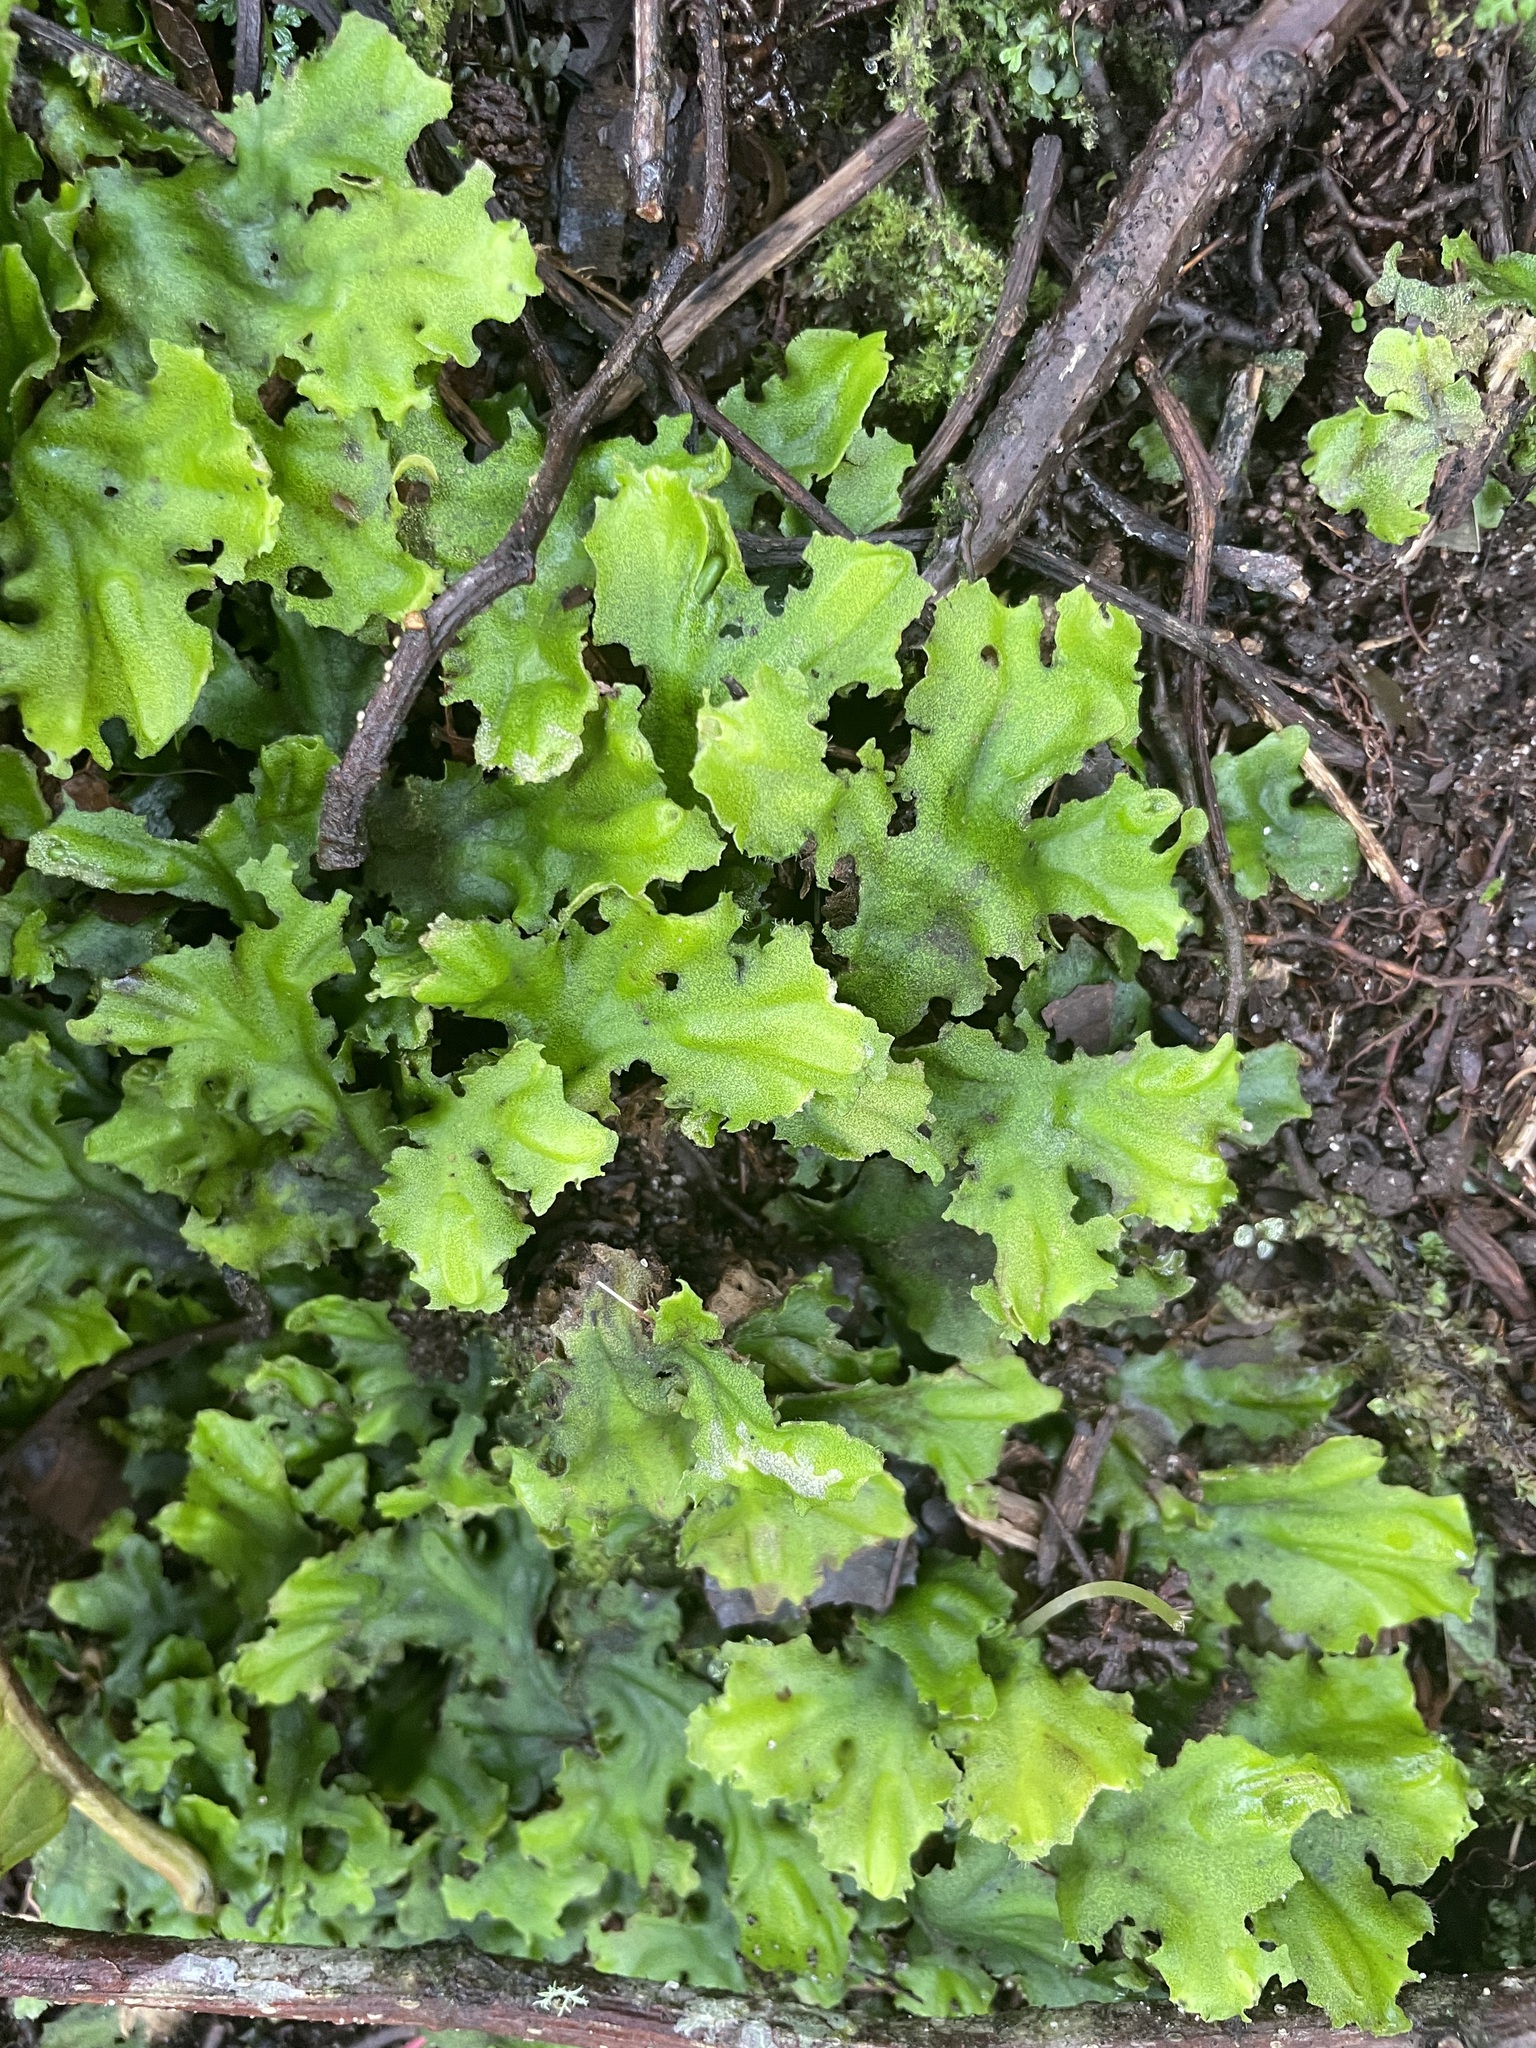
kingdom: Plantae
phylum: Marchantiophyta
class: Marchantiopsida
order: Marchantiales
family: Monocleaceae
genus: Monoclea
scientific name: Monoclea gottschei
